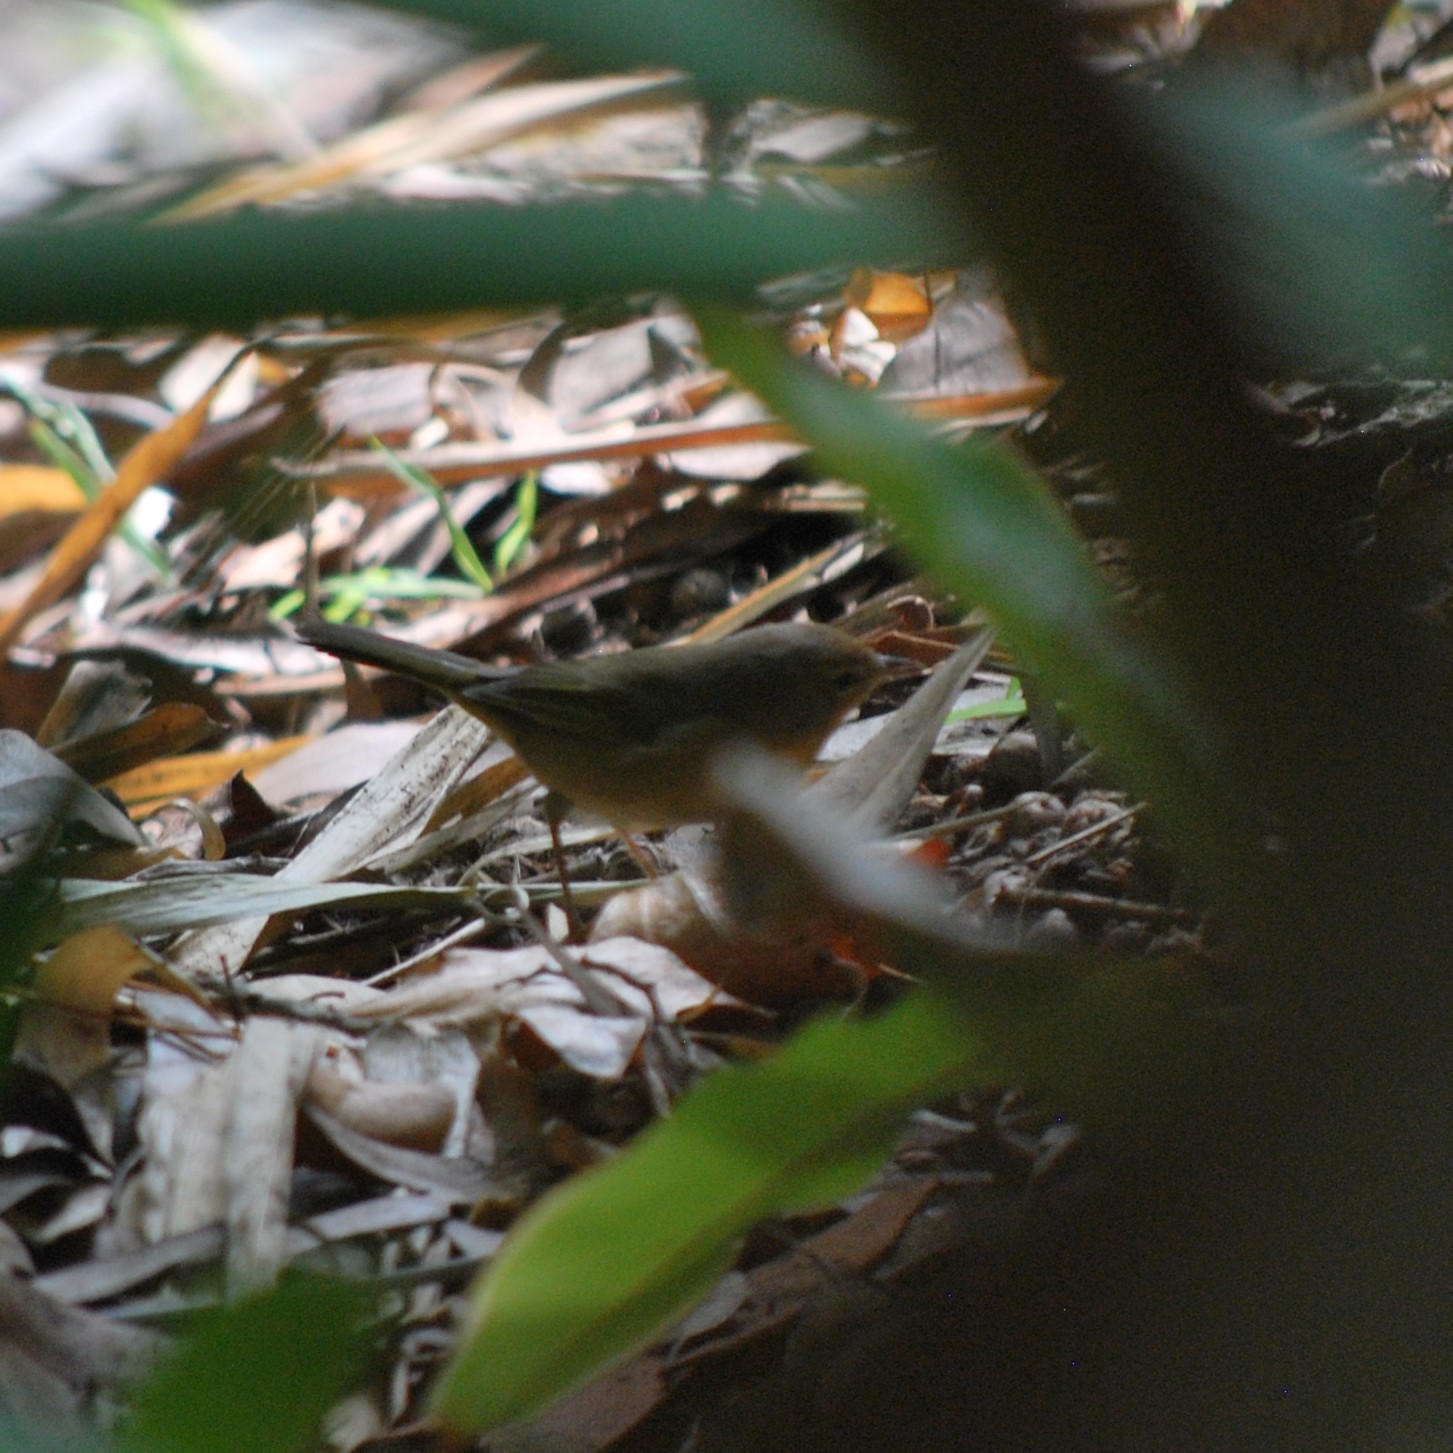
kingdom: Animalia
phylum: Chordata
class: Aves
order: Passeriformes
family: Parulidae
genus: Geothlypis
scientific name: Geothlypis trichas
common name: Common yellowthroat
